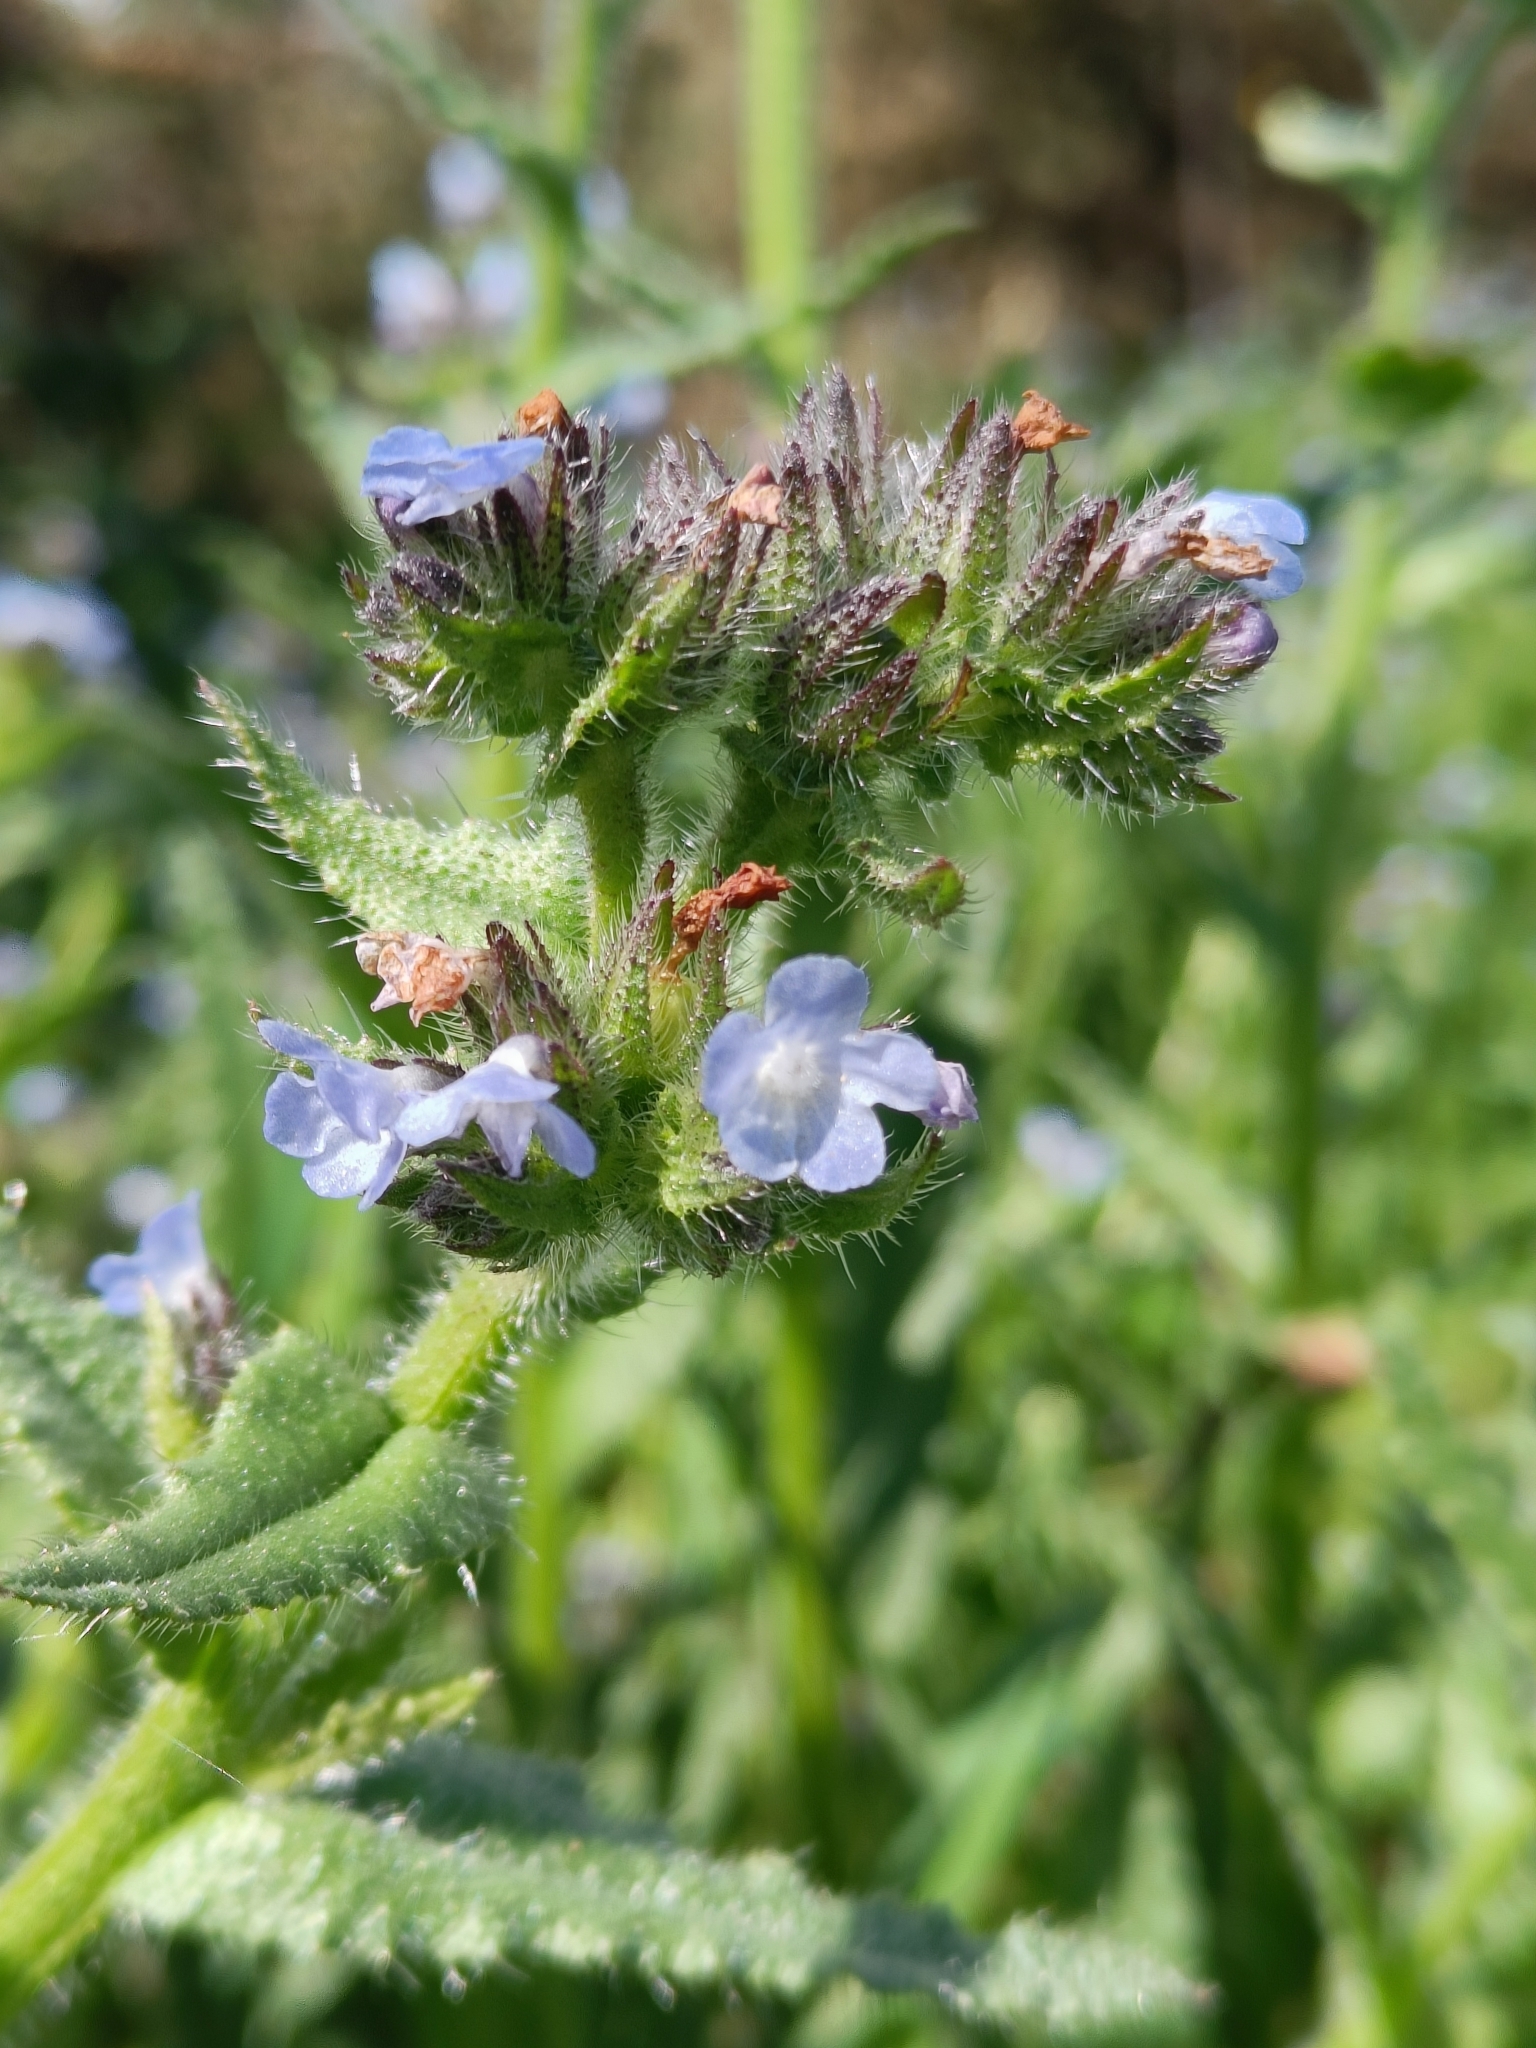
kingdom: Plantae
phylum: Tracheophyta
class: Magnoliopsida
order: Boraginales
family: Boraginaceae
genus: Lycopsis
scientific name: Lycopsis arvensis
